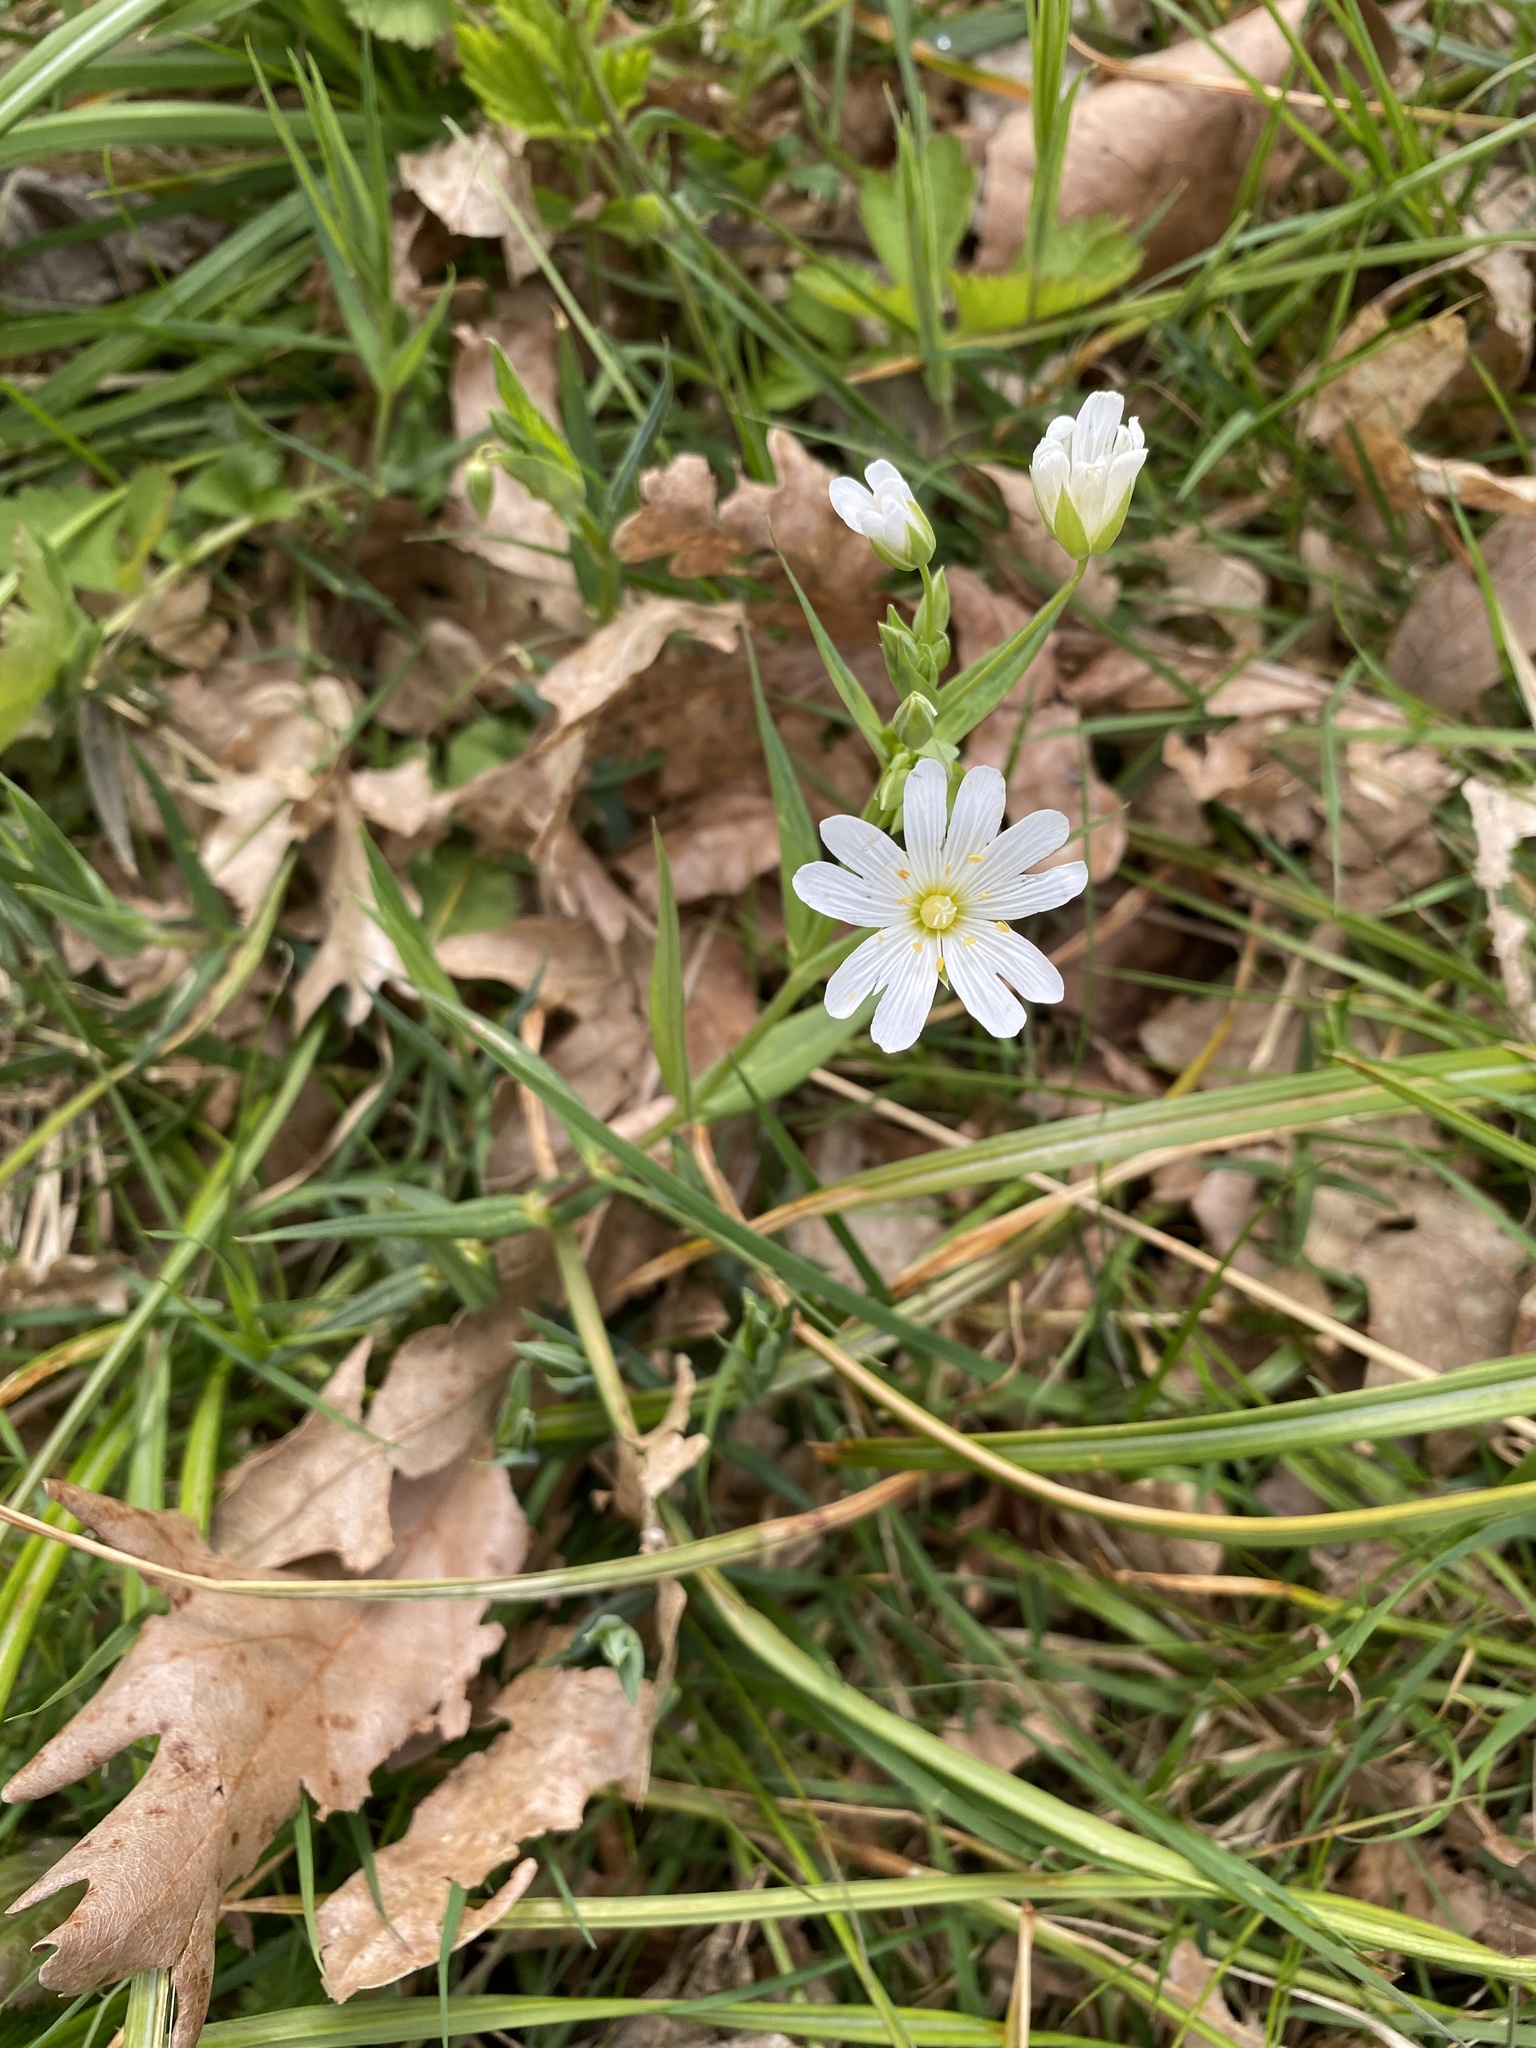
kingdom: Plantae
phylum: Tracheophyta
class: Magnoliopsida
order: Caryophyllales
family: Caryophyllaceae
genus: Rabelera
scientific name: Rabelera holostea
